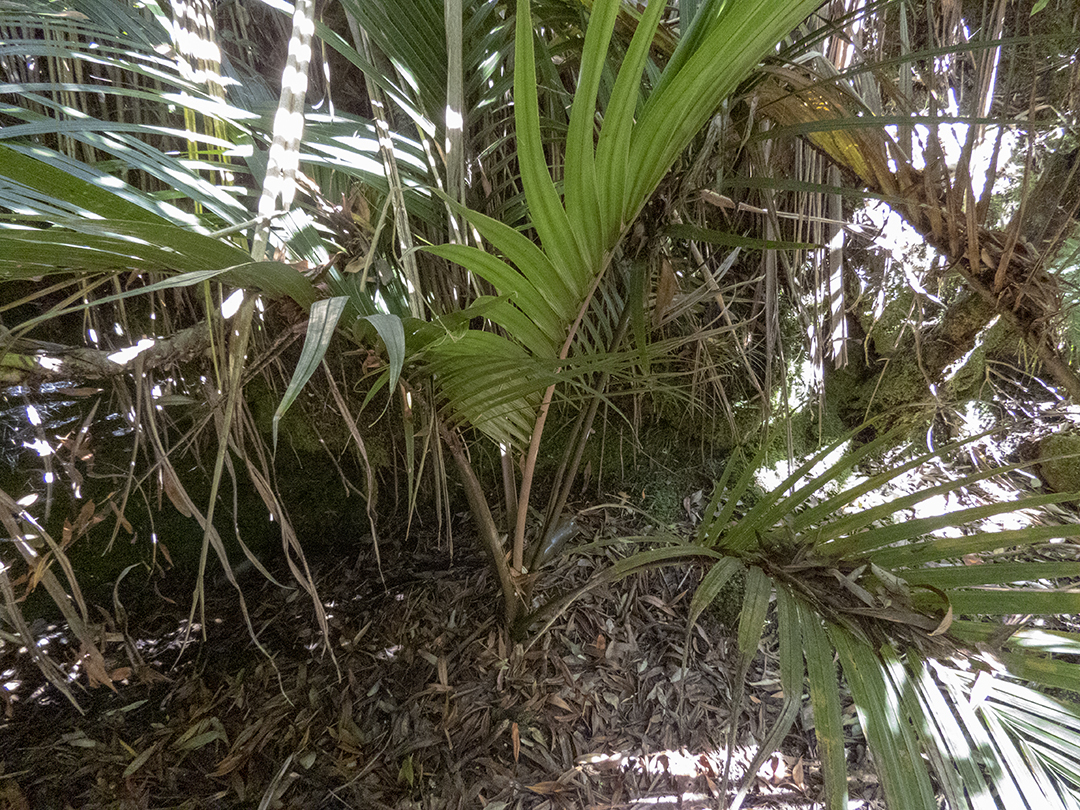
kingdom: Plantae
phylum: Tracheophyta
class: Liliopsida
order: Arecales
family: Arecaceae
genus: Rhopalostylis
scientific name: Rhopalostylis sapida
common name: Feather-duster palm
